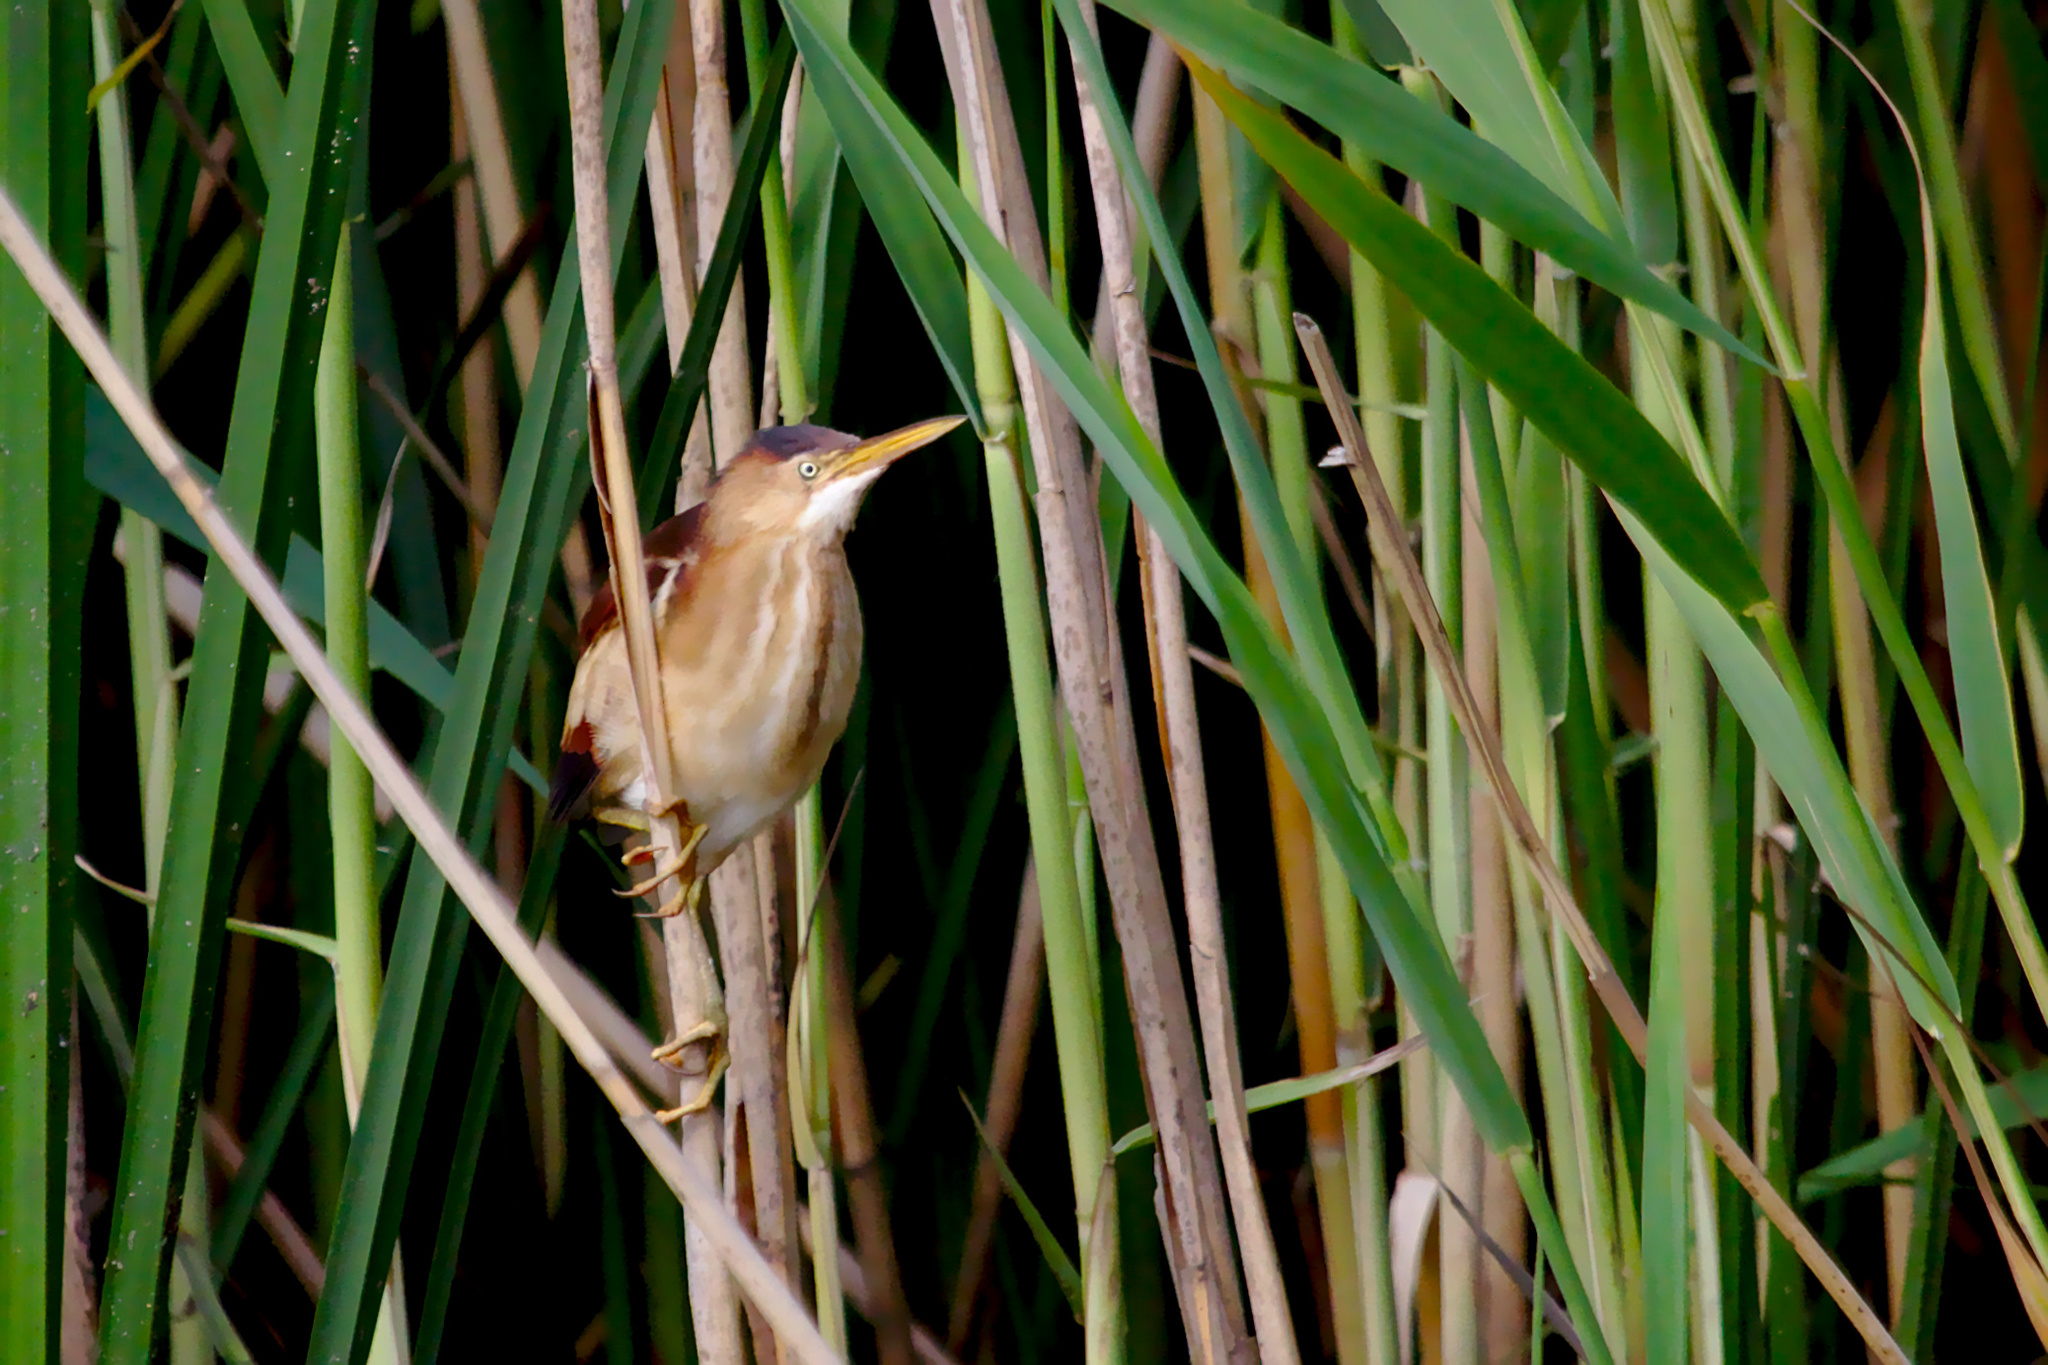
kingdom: Animalia
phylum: Chordata
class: Aves
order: Pelecaniformes
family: Ardeidae
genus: Ixobrychus
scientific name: Ixobrychus exilis
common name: Least bittern
